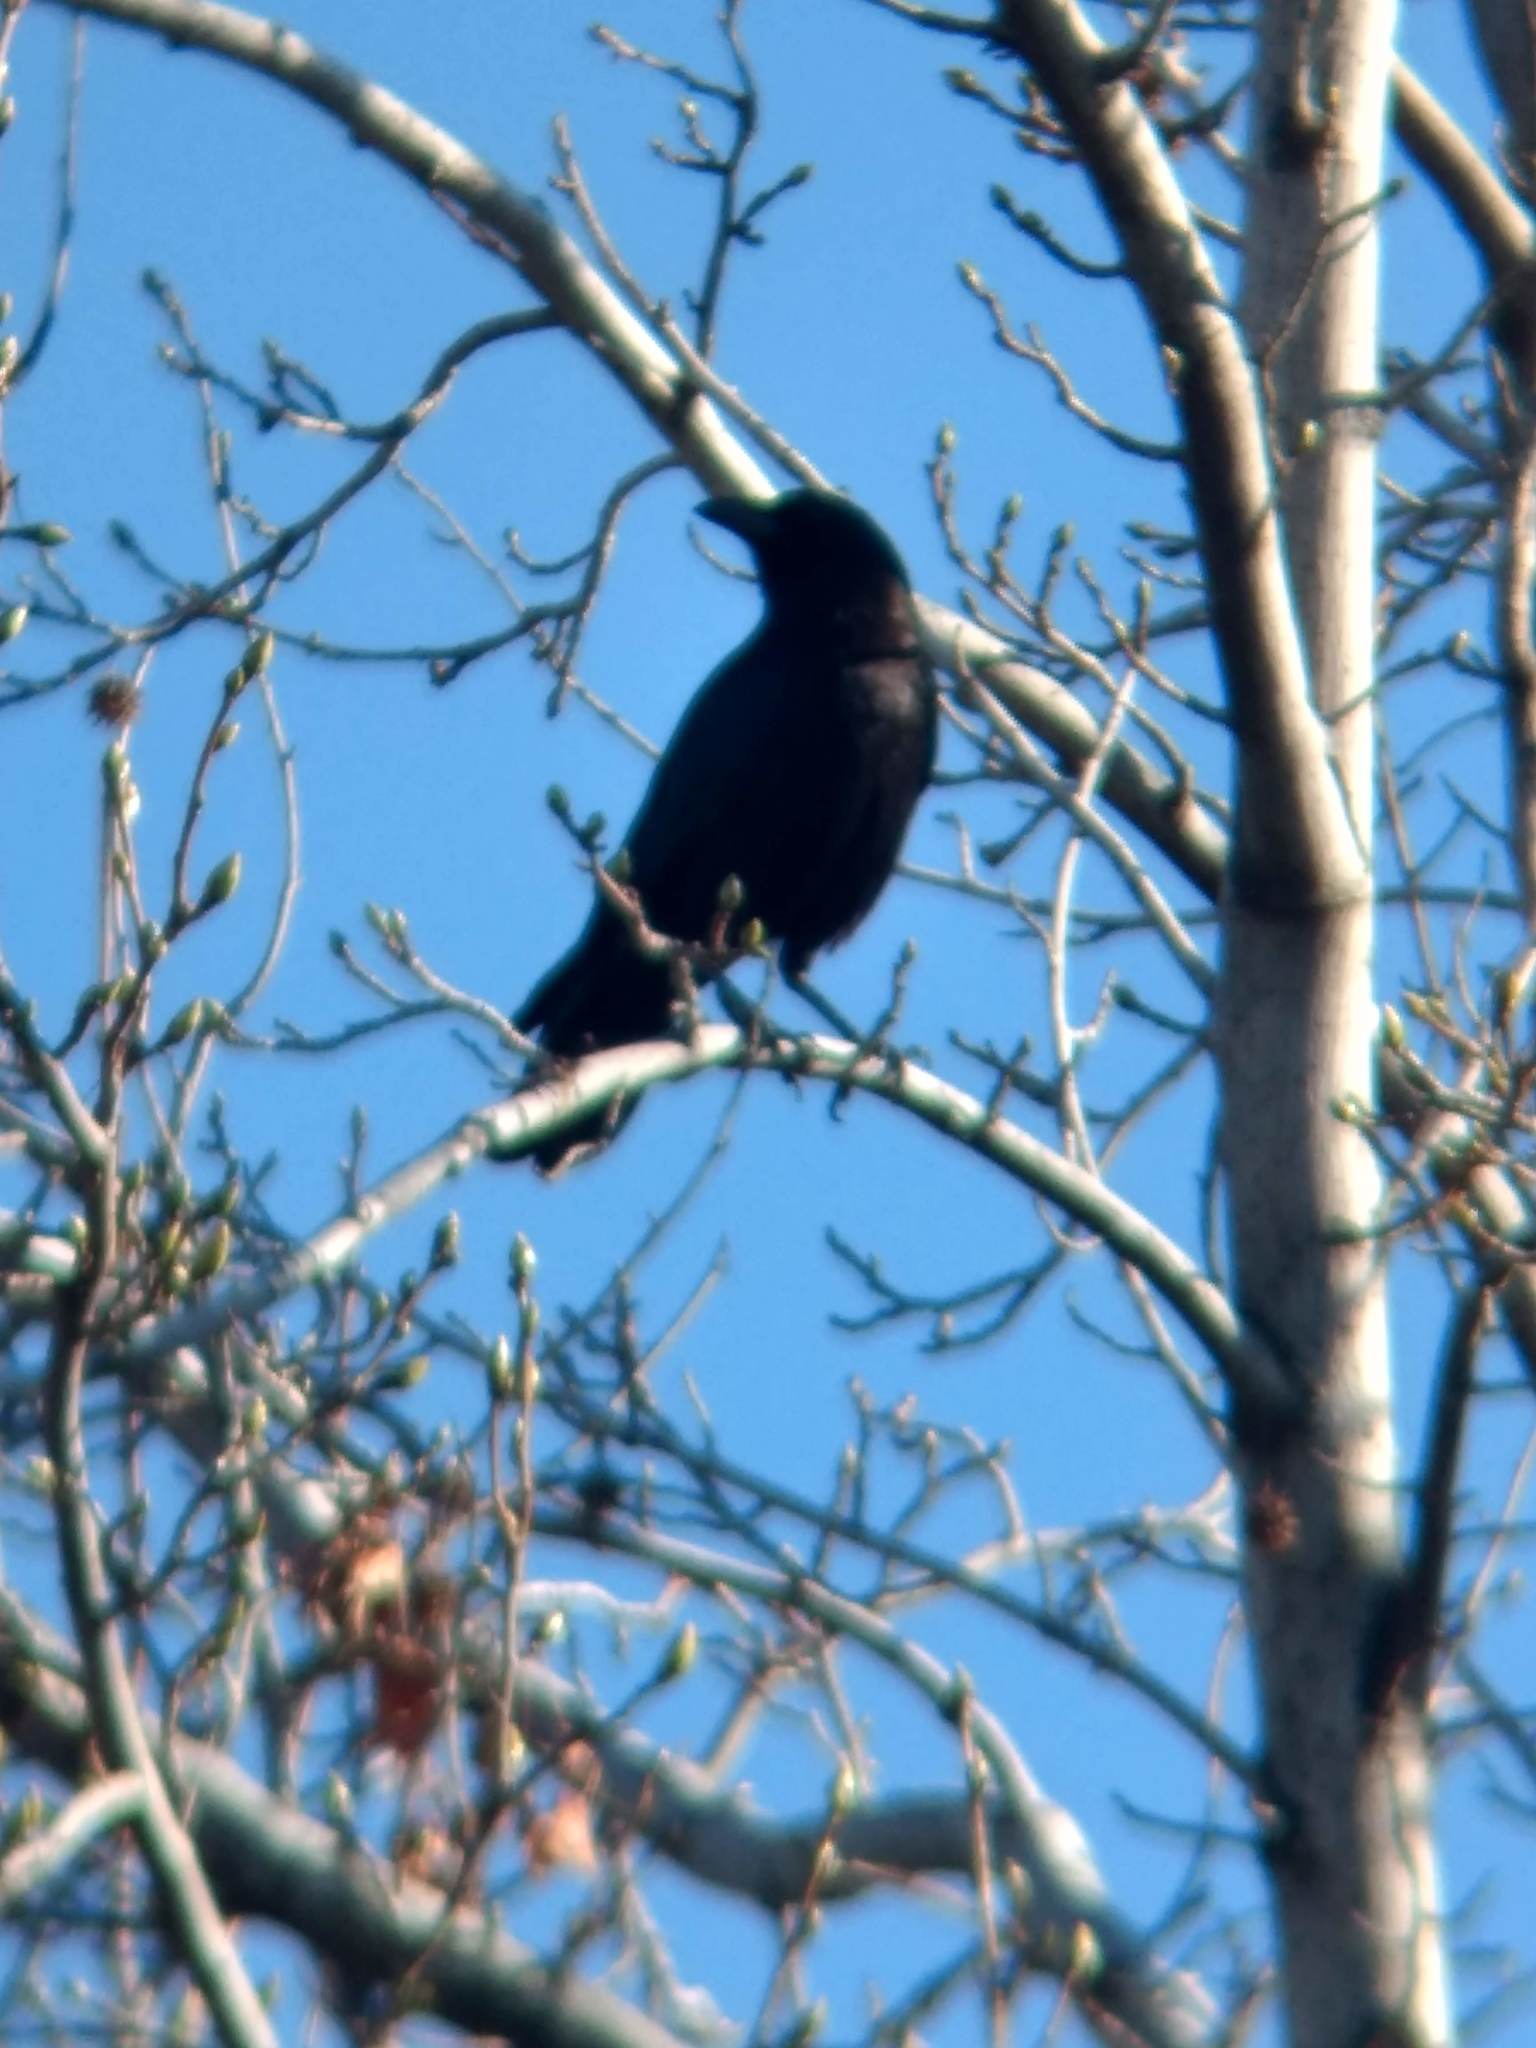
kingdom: Animalia
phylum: Chordata
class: Aves
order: Passeriformes
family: Corvidae
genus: Corvus
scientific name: Corvus brachyrhynchos
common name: American crow
